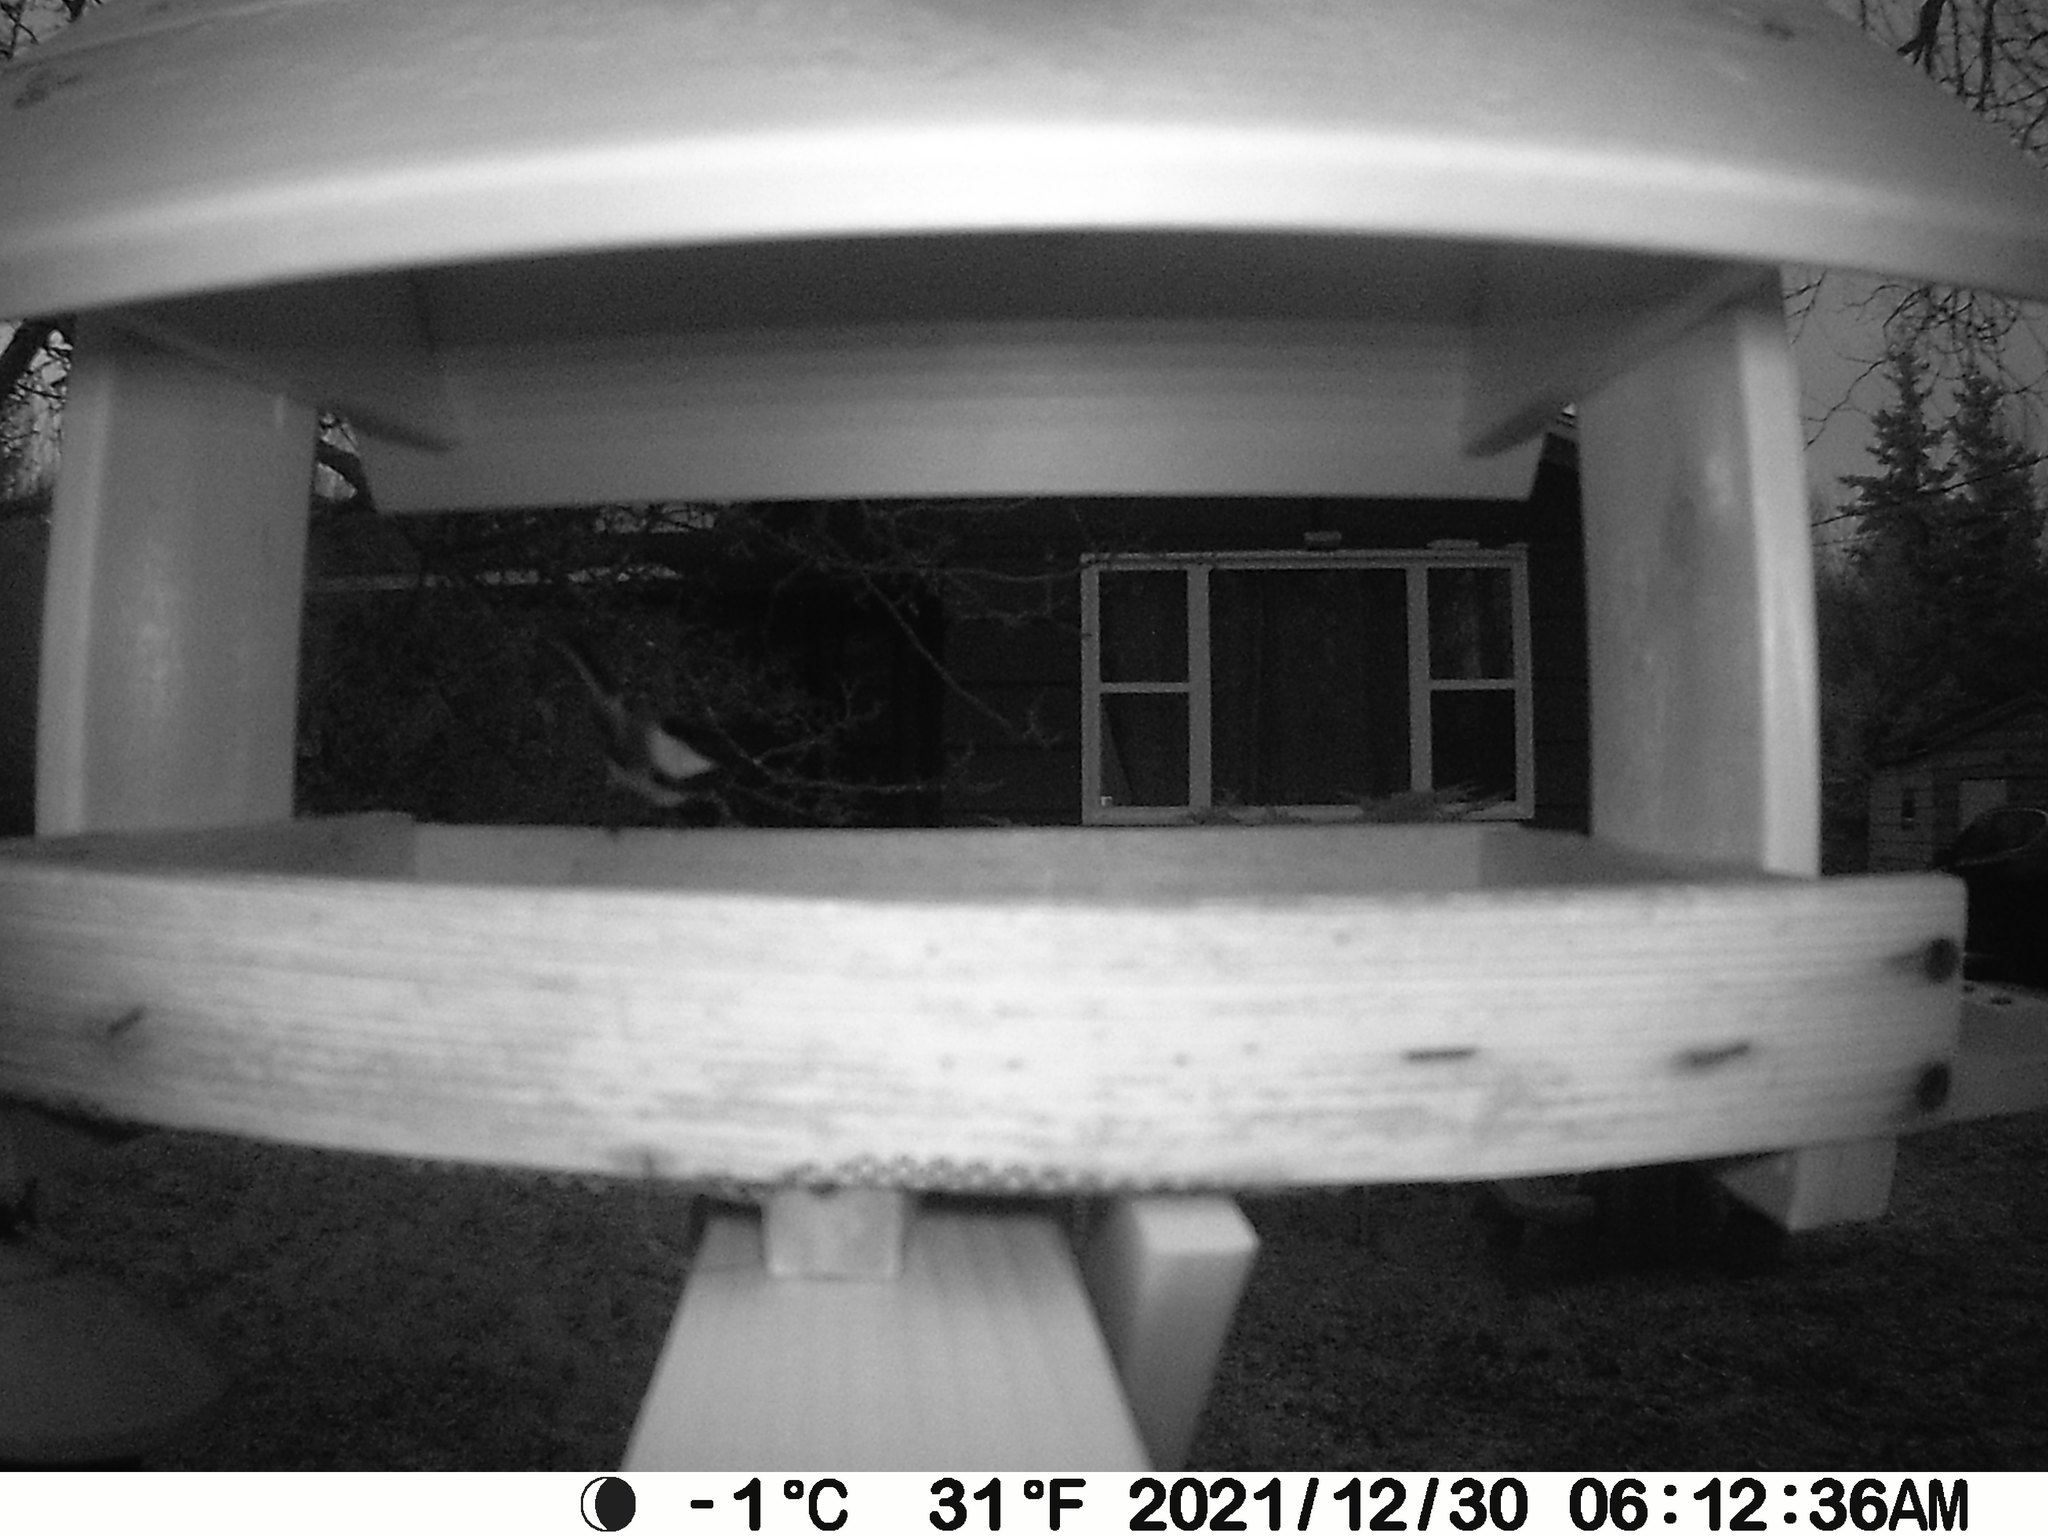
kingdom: Animalia
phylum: Chordata
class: Aves
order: Passeriformes
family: Paridae
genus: Poecile
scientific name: Poecile atricapillus
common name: Black-capped chickadee
